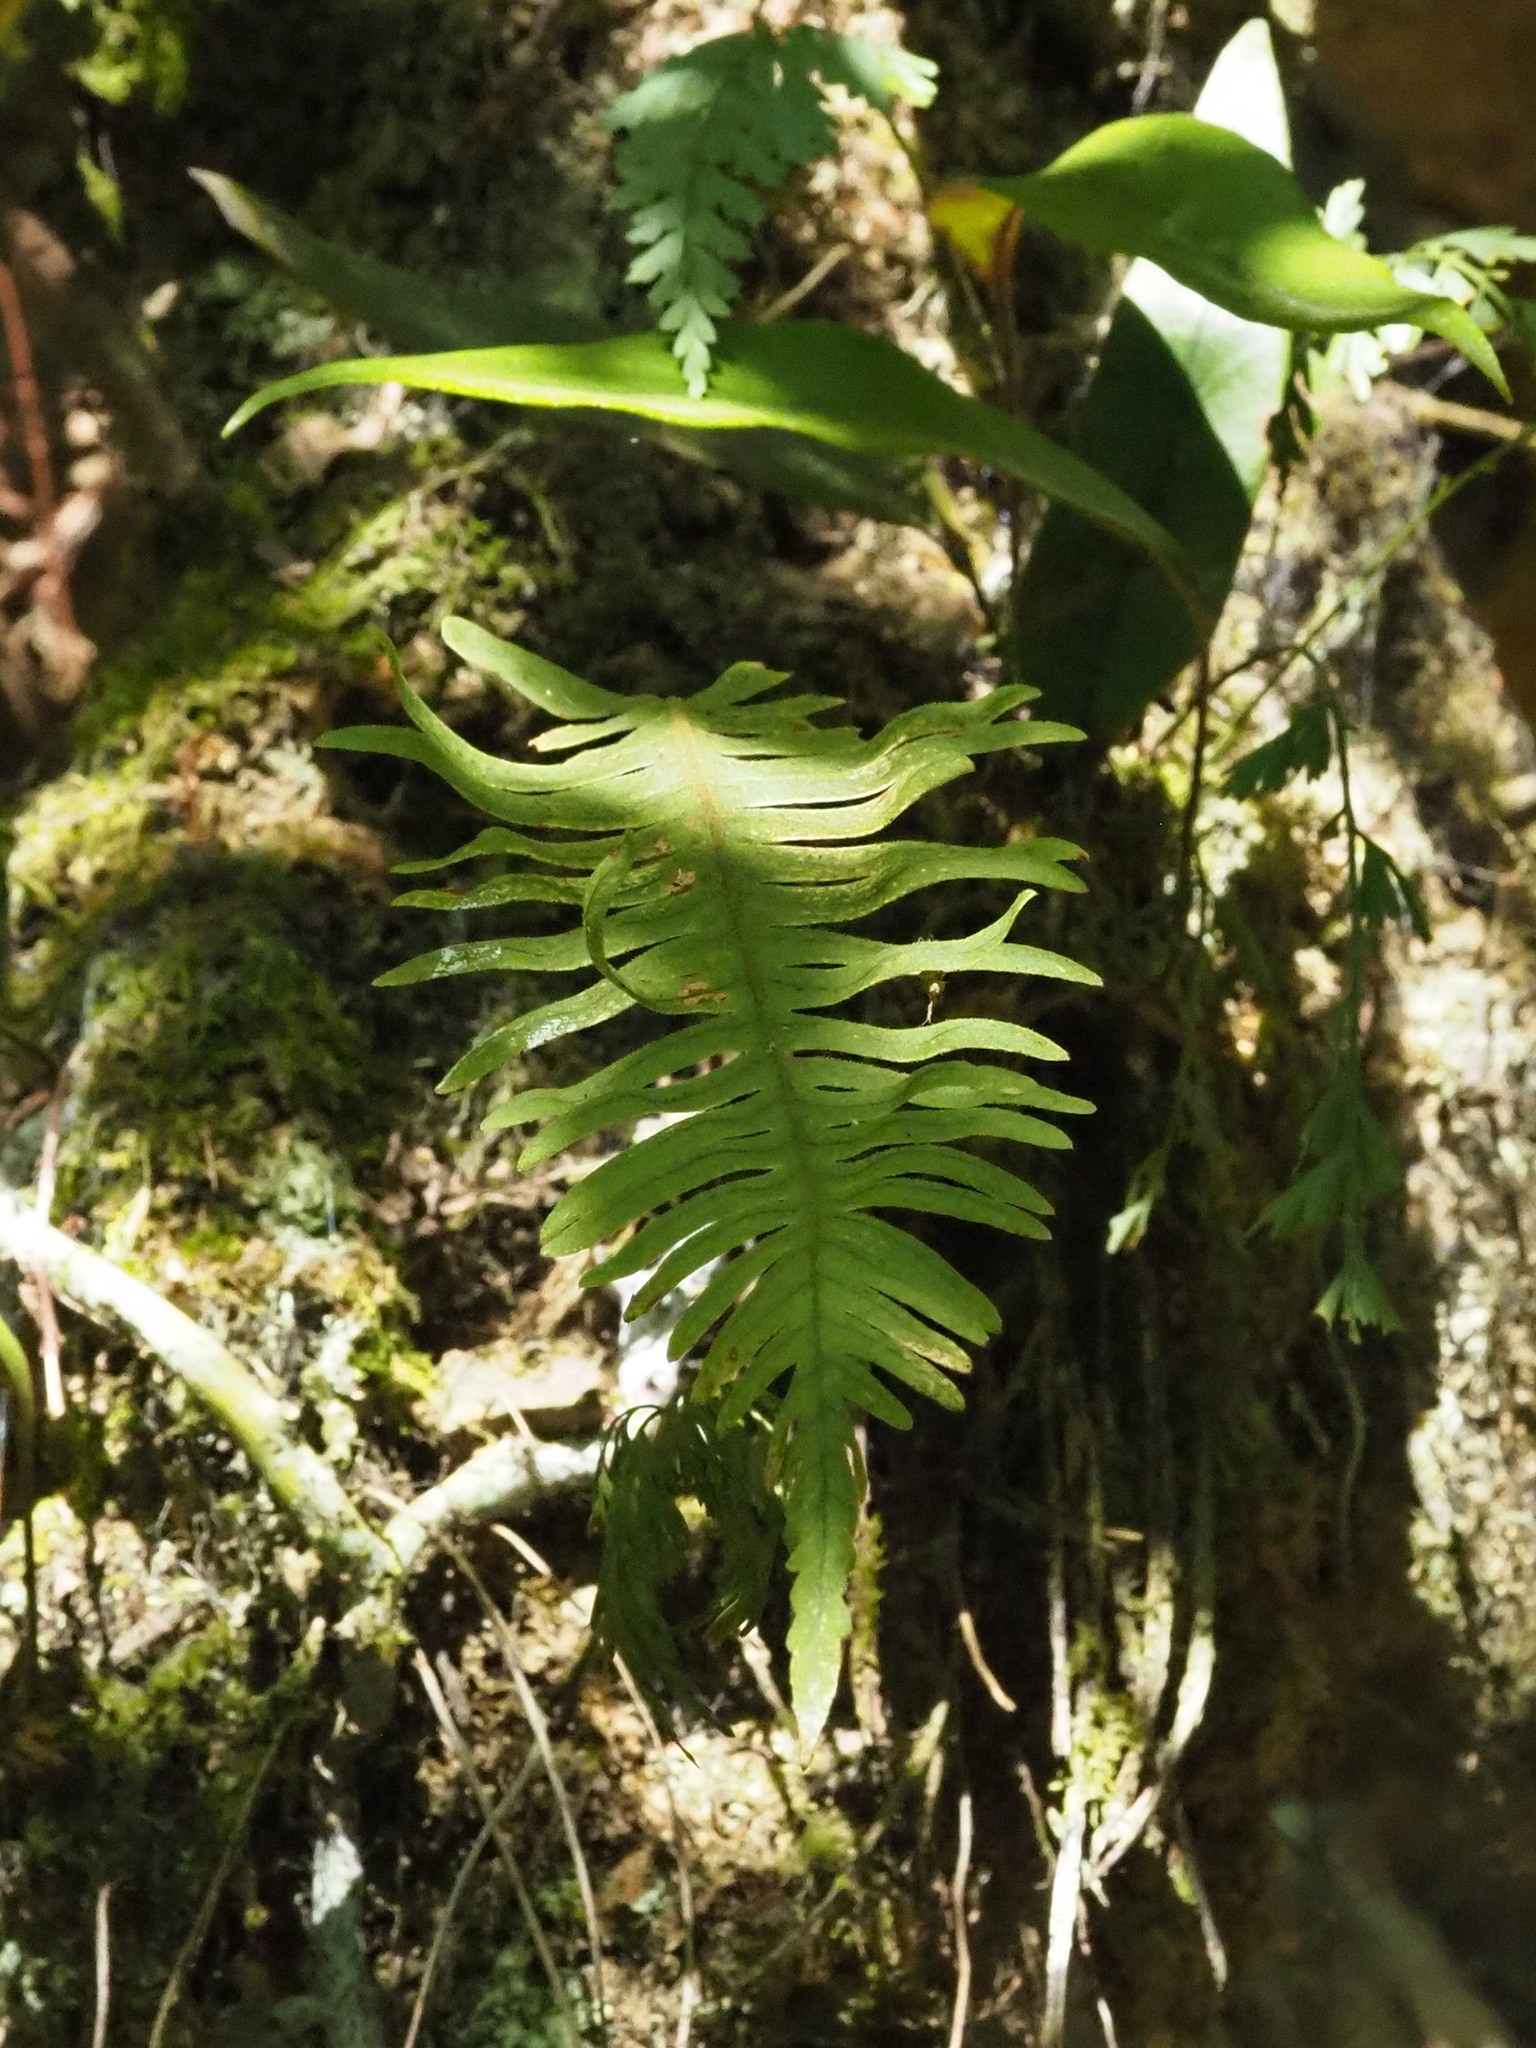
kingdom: Plantae
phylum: Tracheophyta
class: Polypodiopsida
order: Polypodiales
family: Polypodiaceae
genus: Goniophlebium
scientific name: Goniophlebium formosanum
